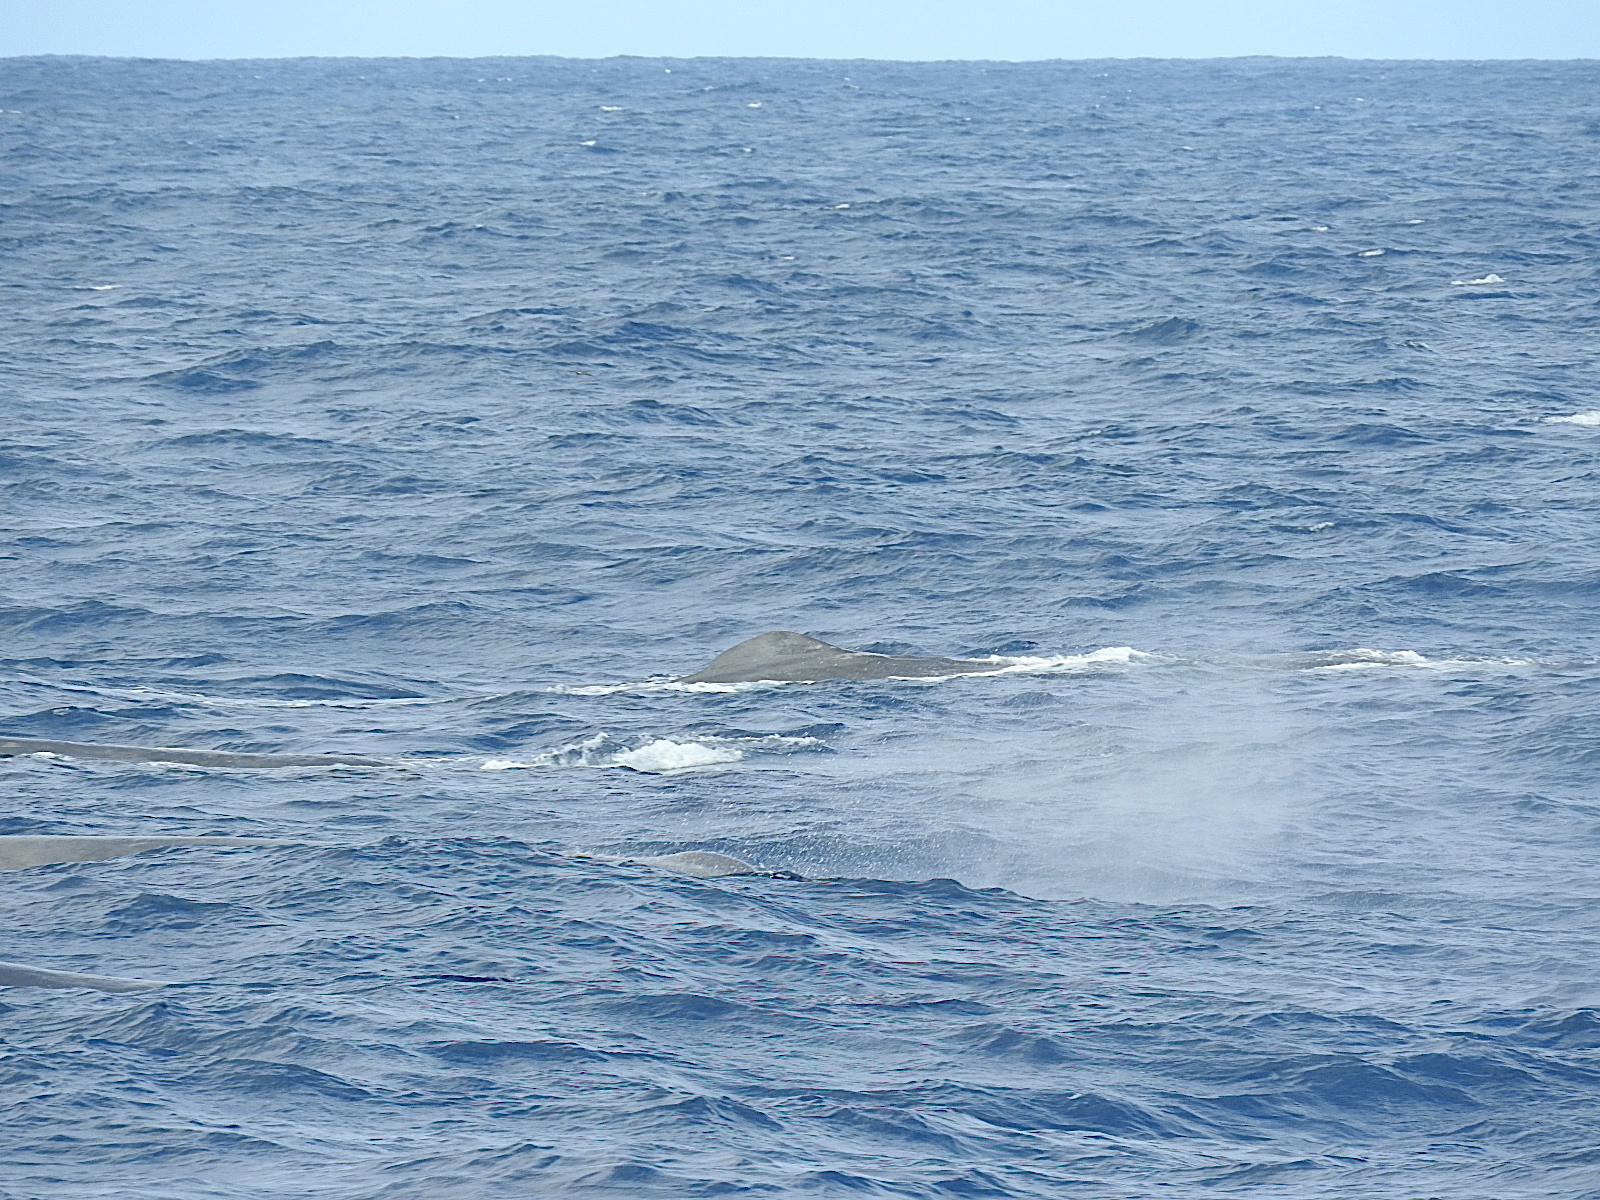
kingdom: Animalia
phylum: Chordata
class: Mammalia
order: Cetacea
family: Physeteridae
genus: Physeter
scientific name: Physeter macrocephalus
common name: Sperm whale
